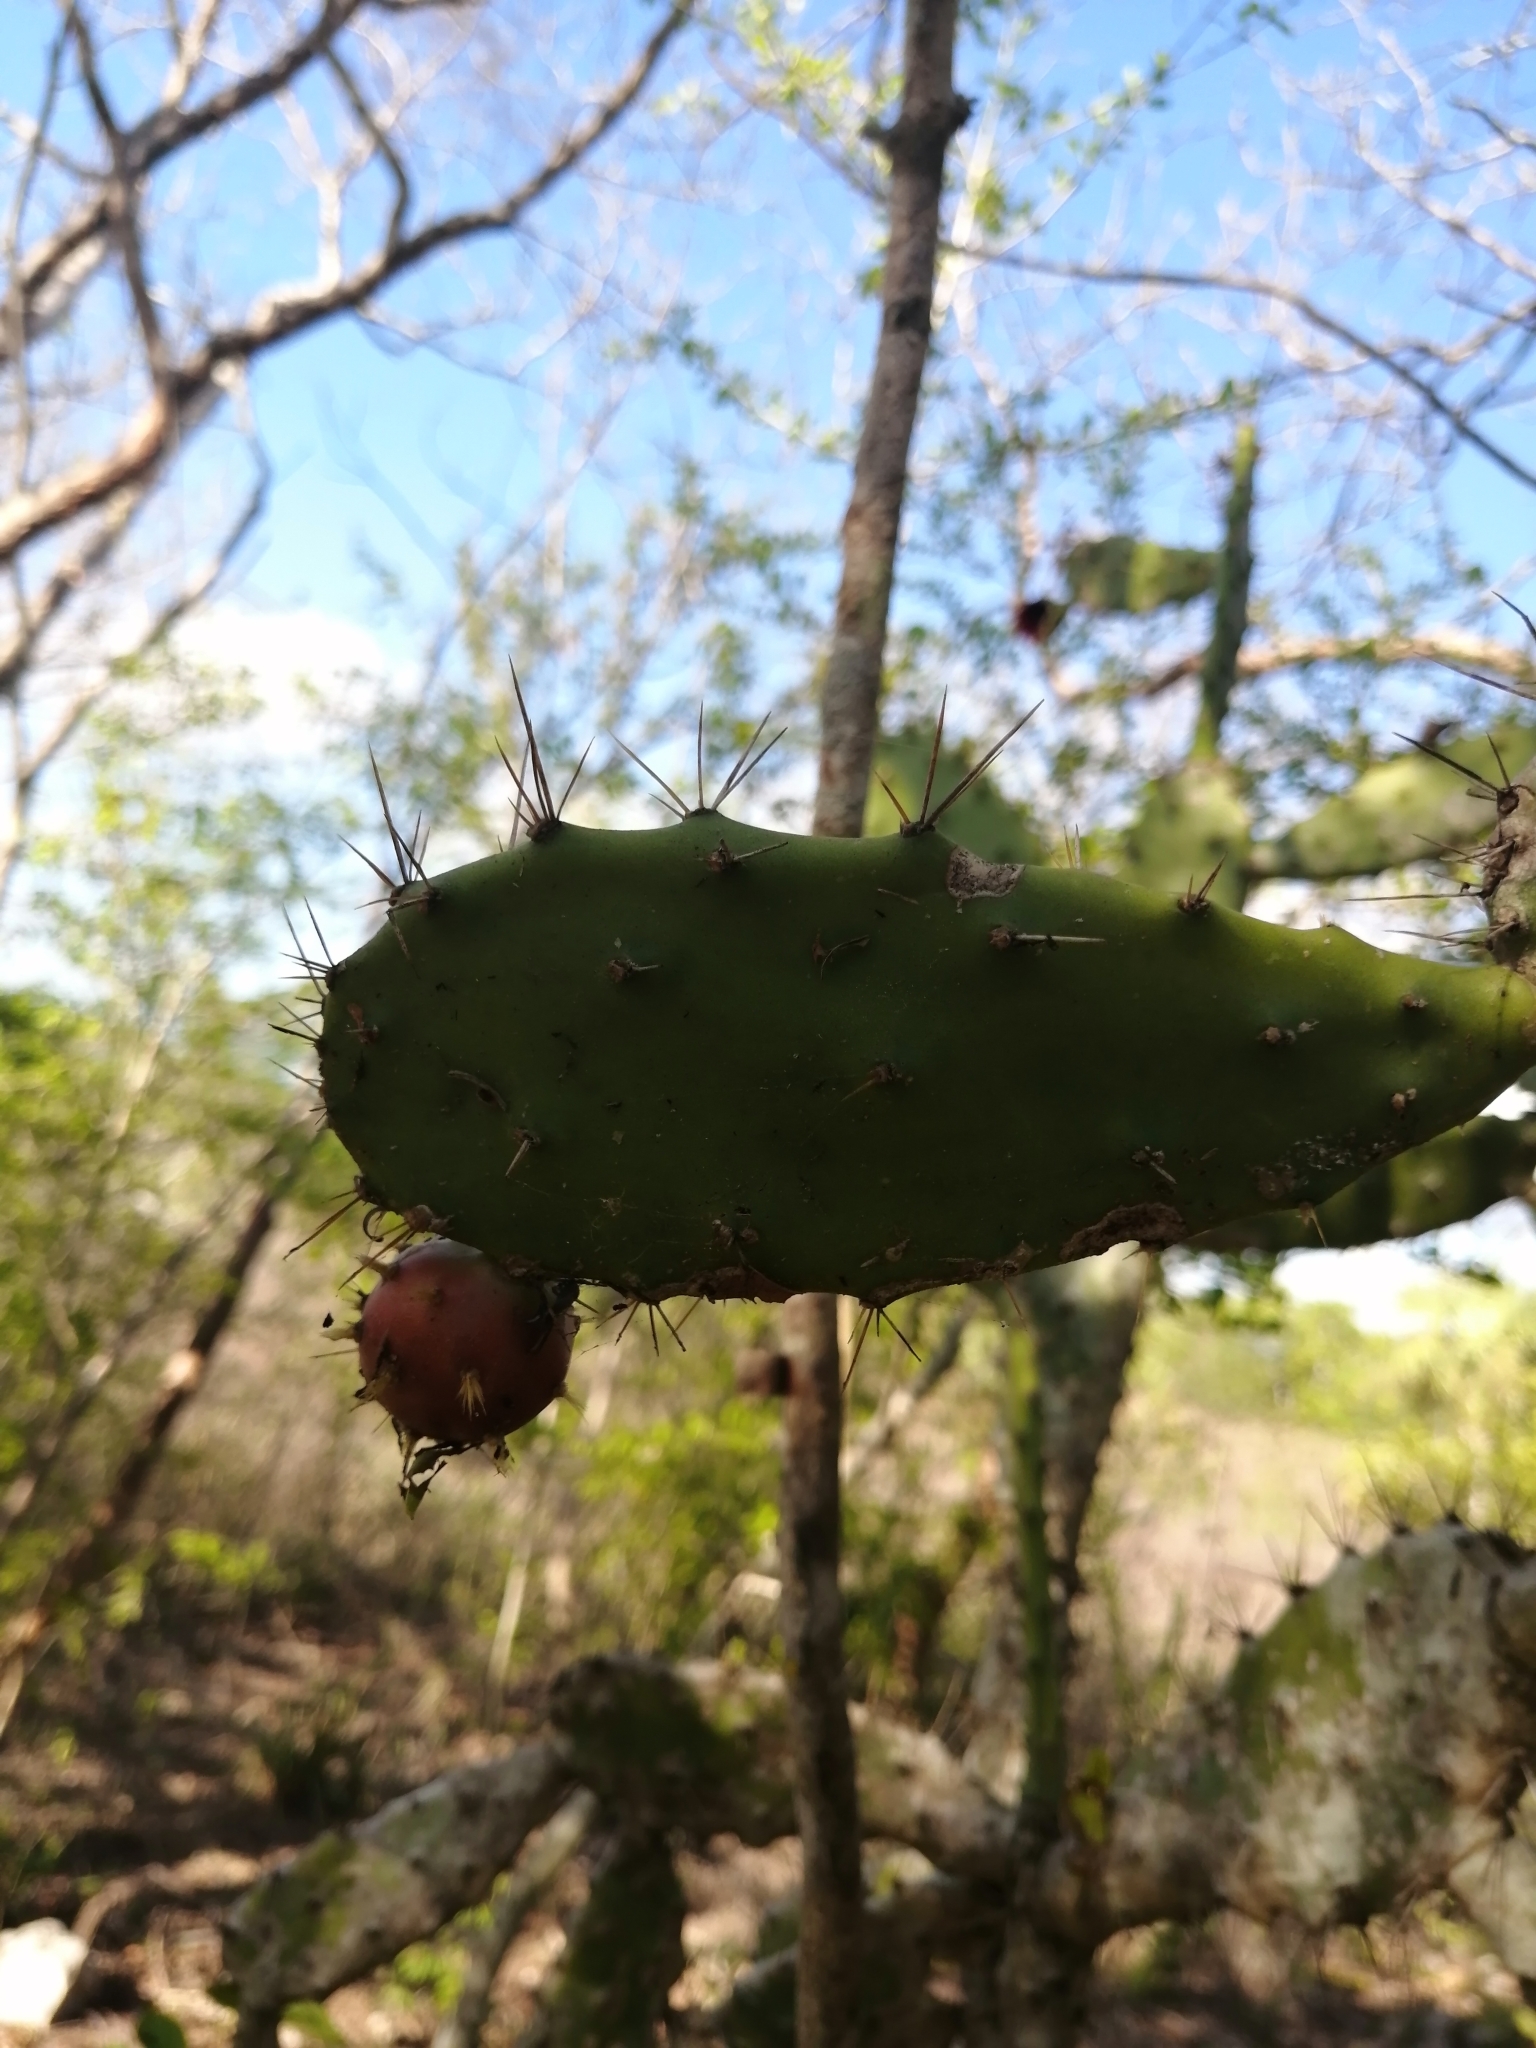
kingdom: Plantae
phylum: Tracheophyta
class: Magnoliopsida
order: Caryophyllales
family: Cactaceae
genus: Opuntia
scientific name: Opuntia inaperta
